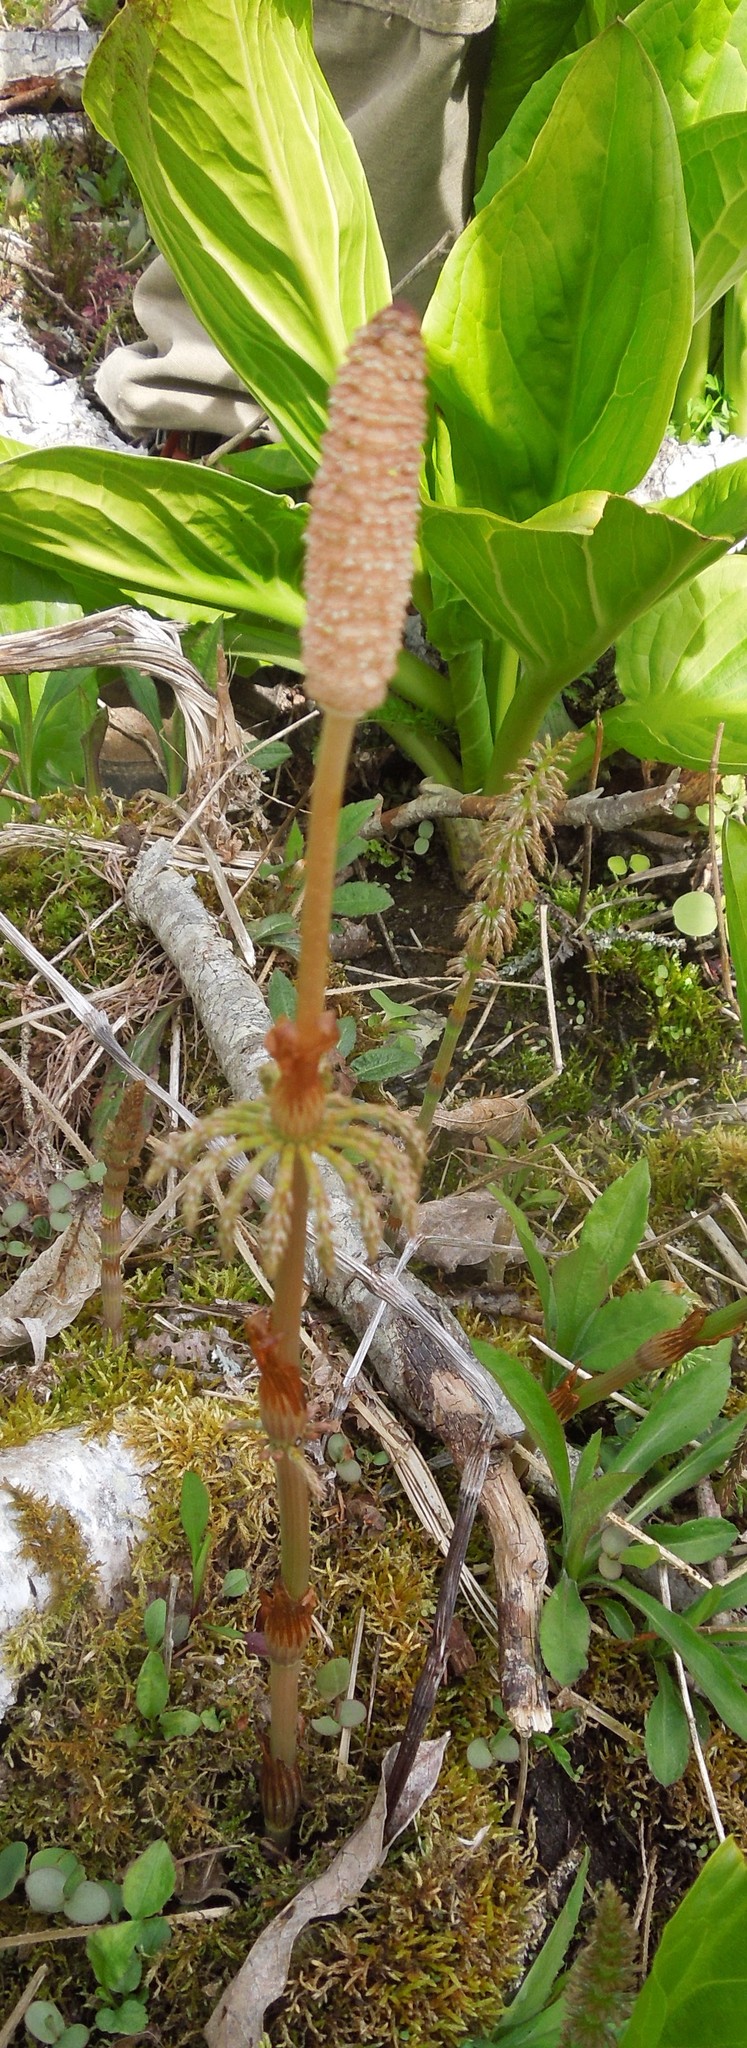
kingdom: Plantae
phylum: Tracheophyta
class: Polypodiopsida
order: Equisetales
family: Equisetaceae
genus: Equisetum
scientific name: Equisetum sylvaticum
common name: Wood horsetail
